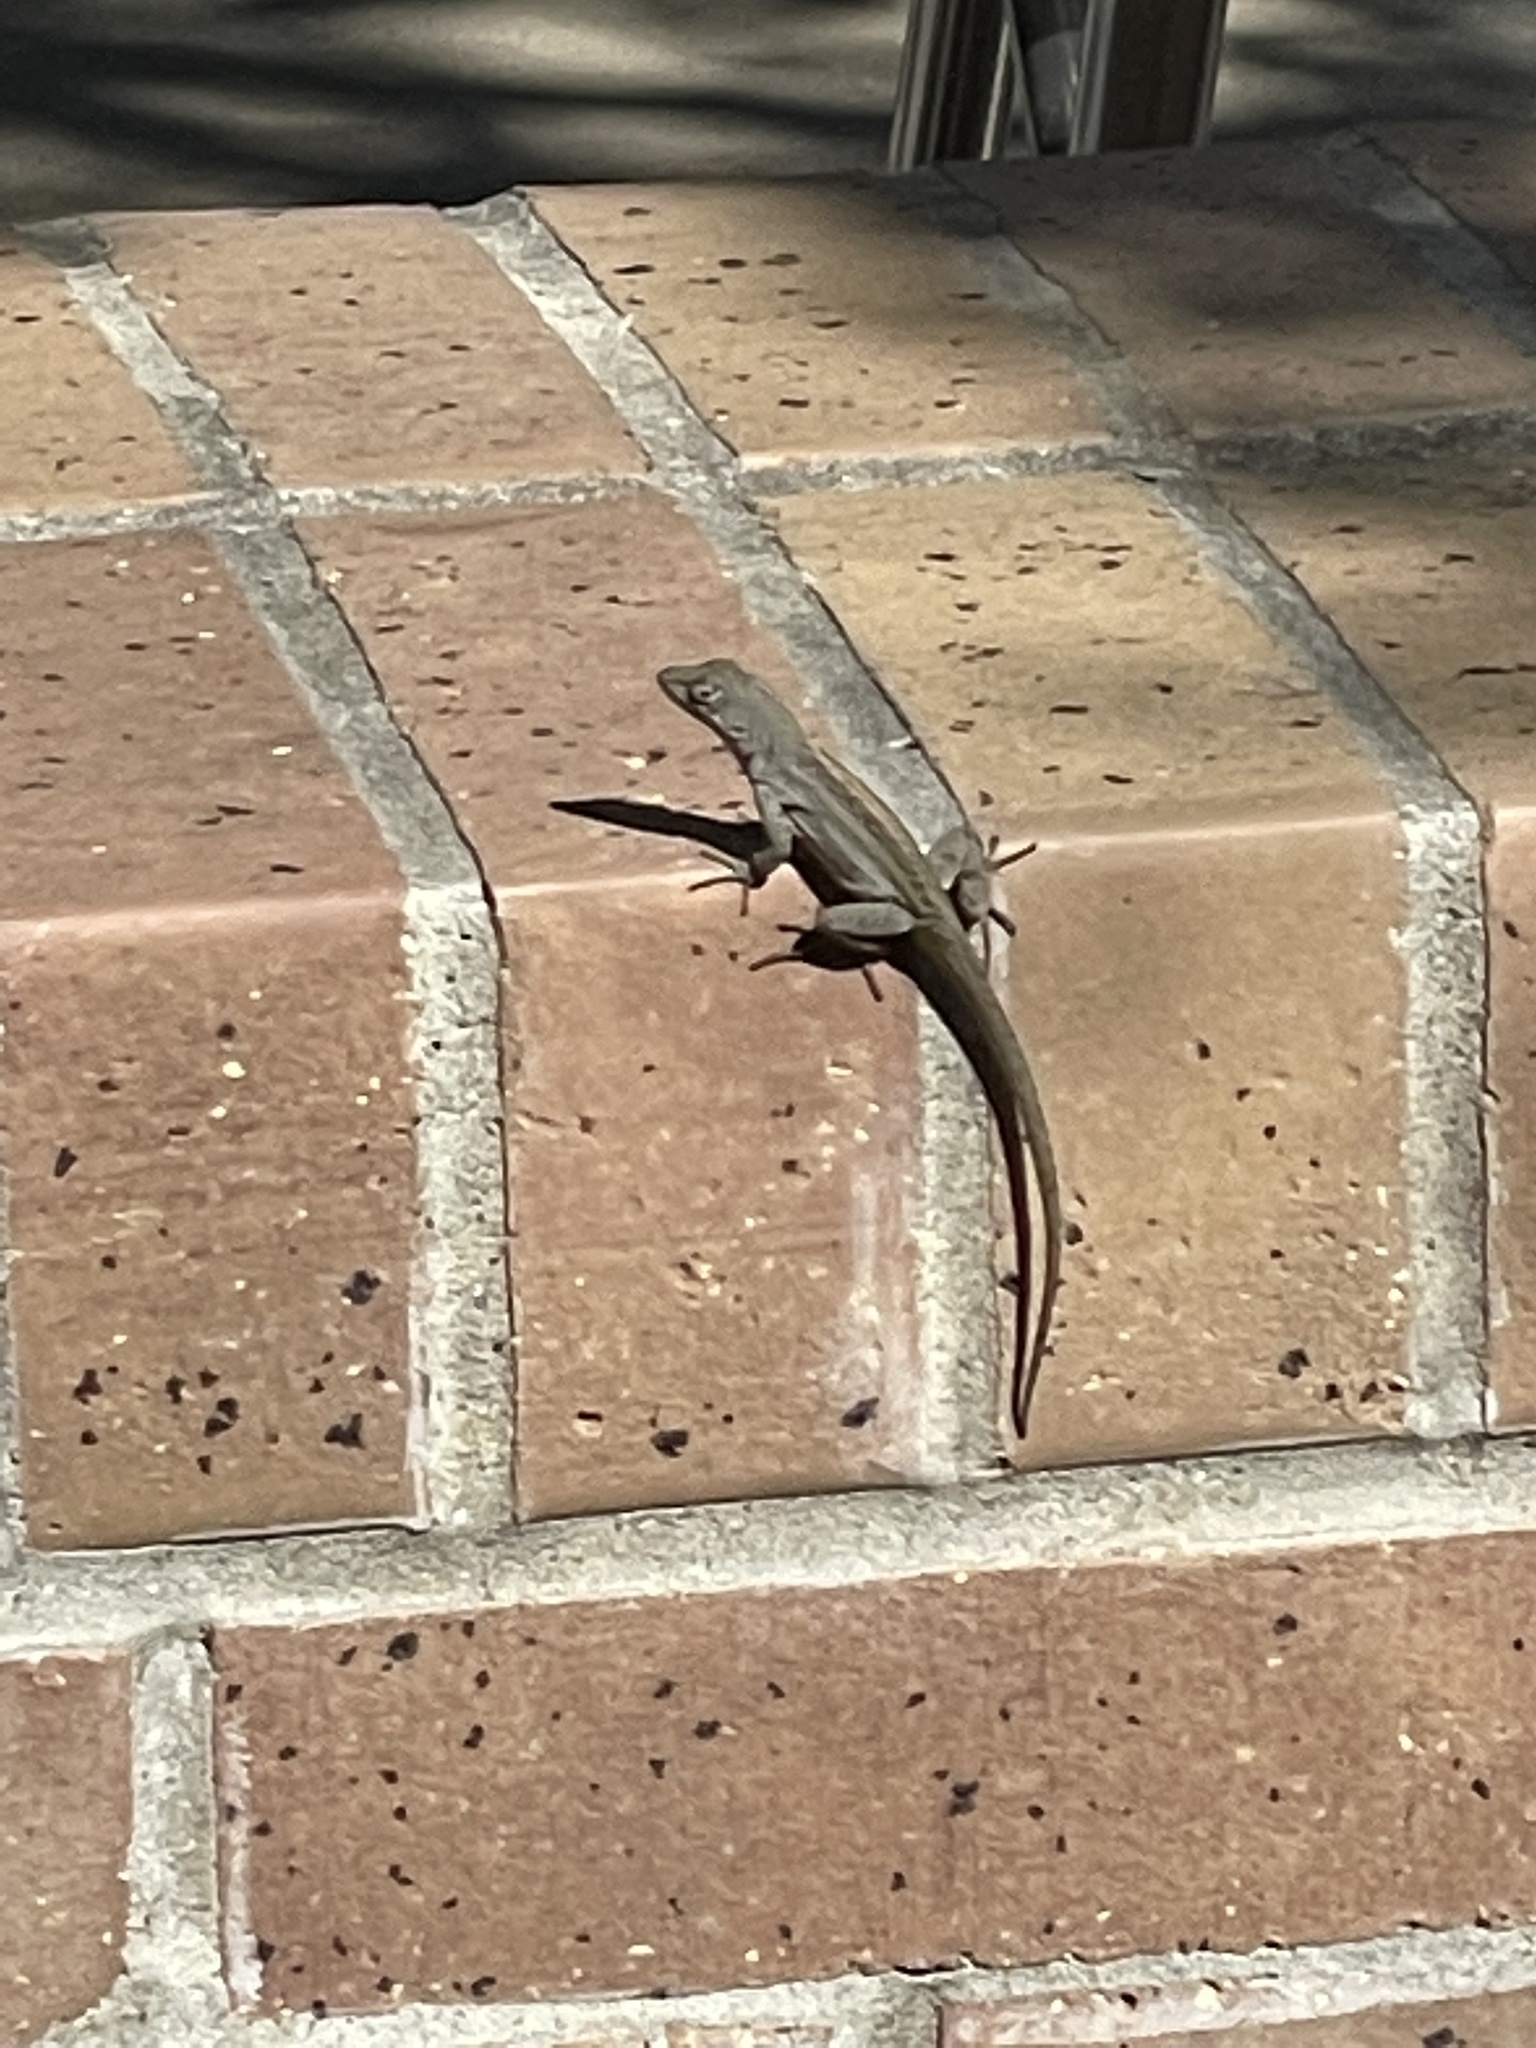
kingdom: Animalia
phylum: Chordata
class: Squamata
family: Dactyloidae
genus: Anolis
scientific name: Anolis sagrei
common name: Brown anole
